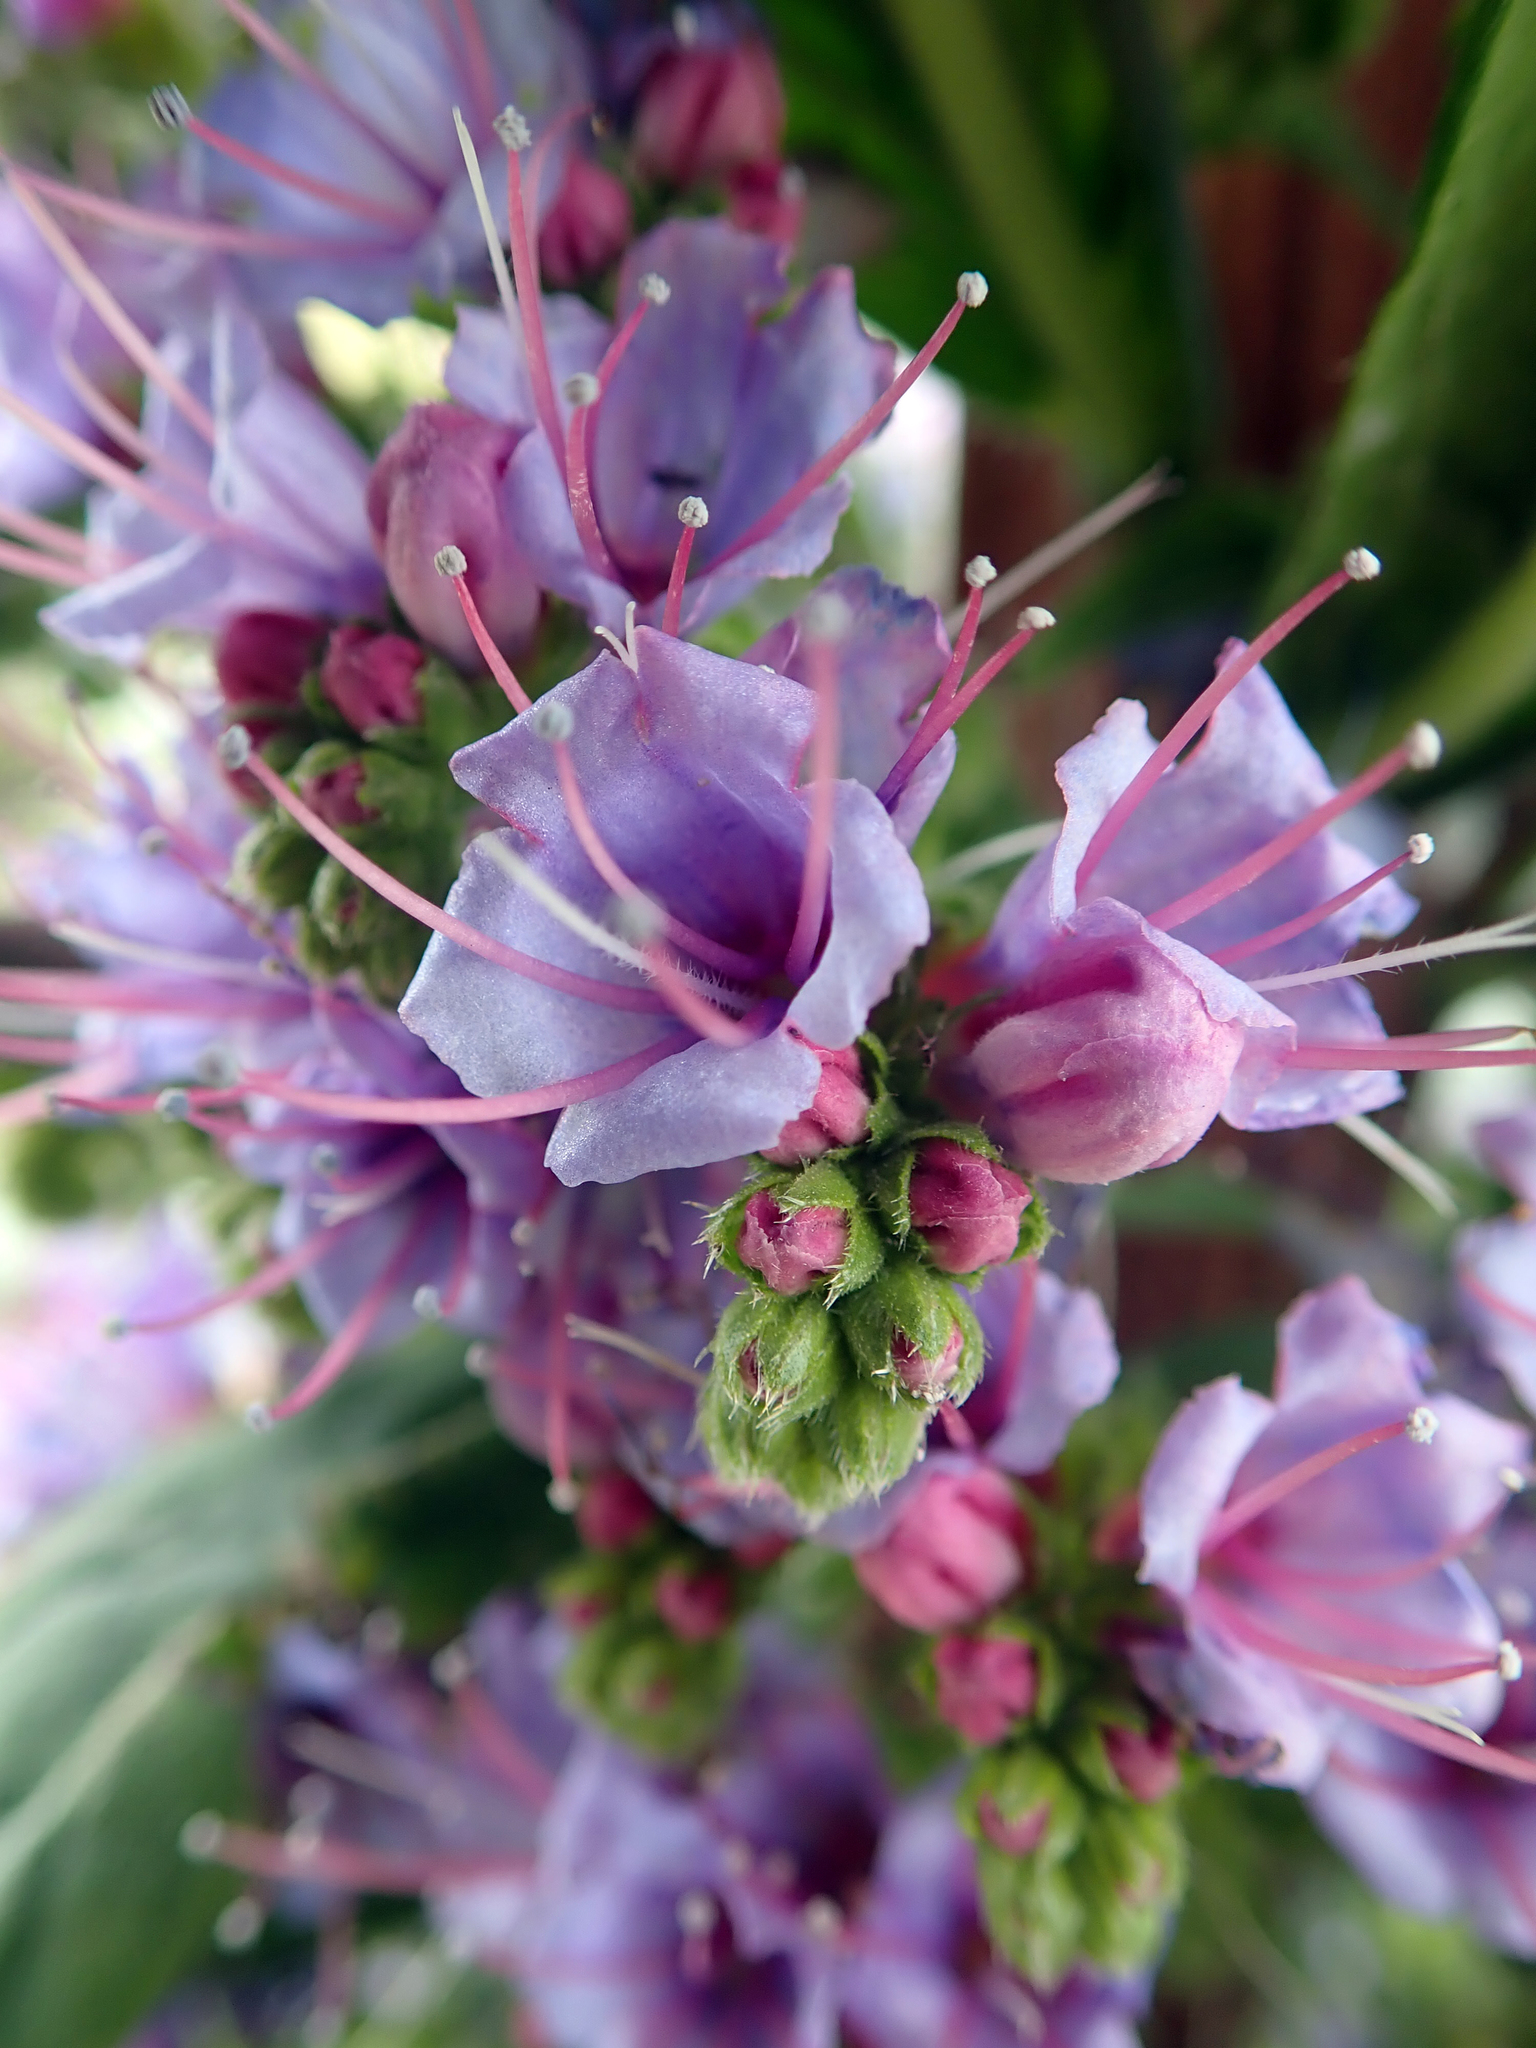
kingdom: Plantae
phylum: Tracheophyta
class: Magnoliopsida
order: Boraginales
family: Boraginaceae
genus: Echium
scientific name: Echium pininana
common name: Giant viper's-bugloss
